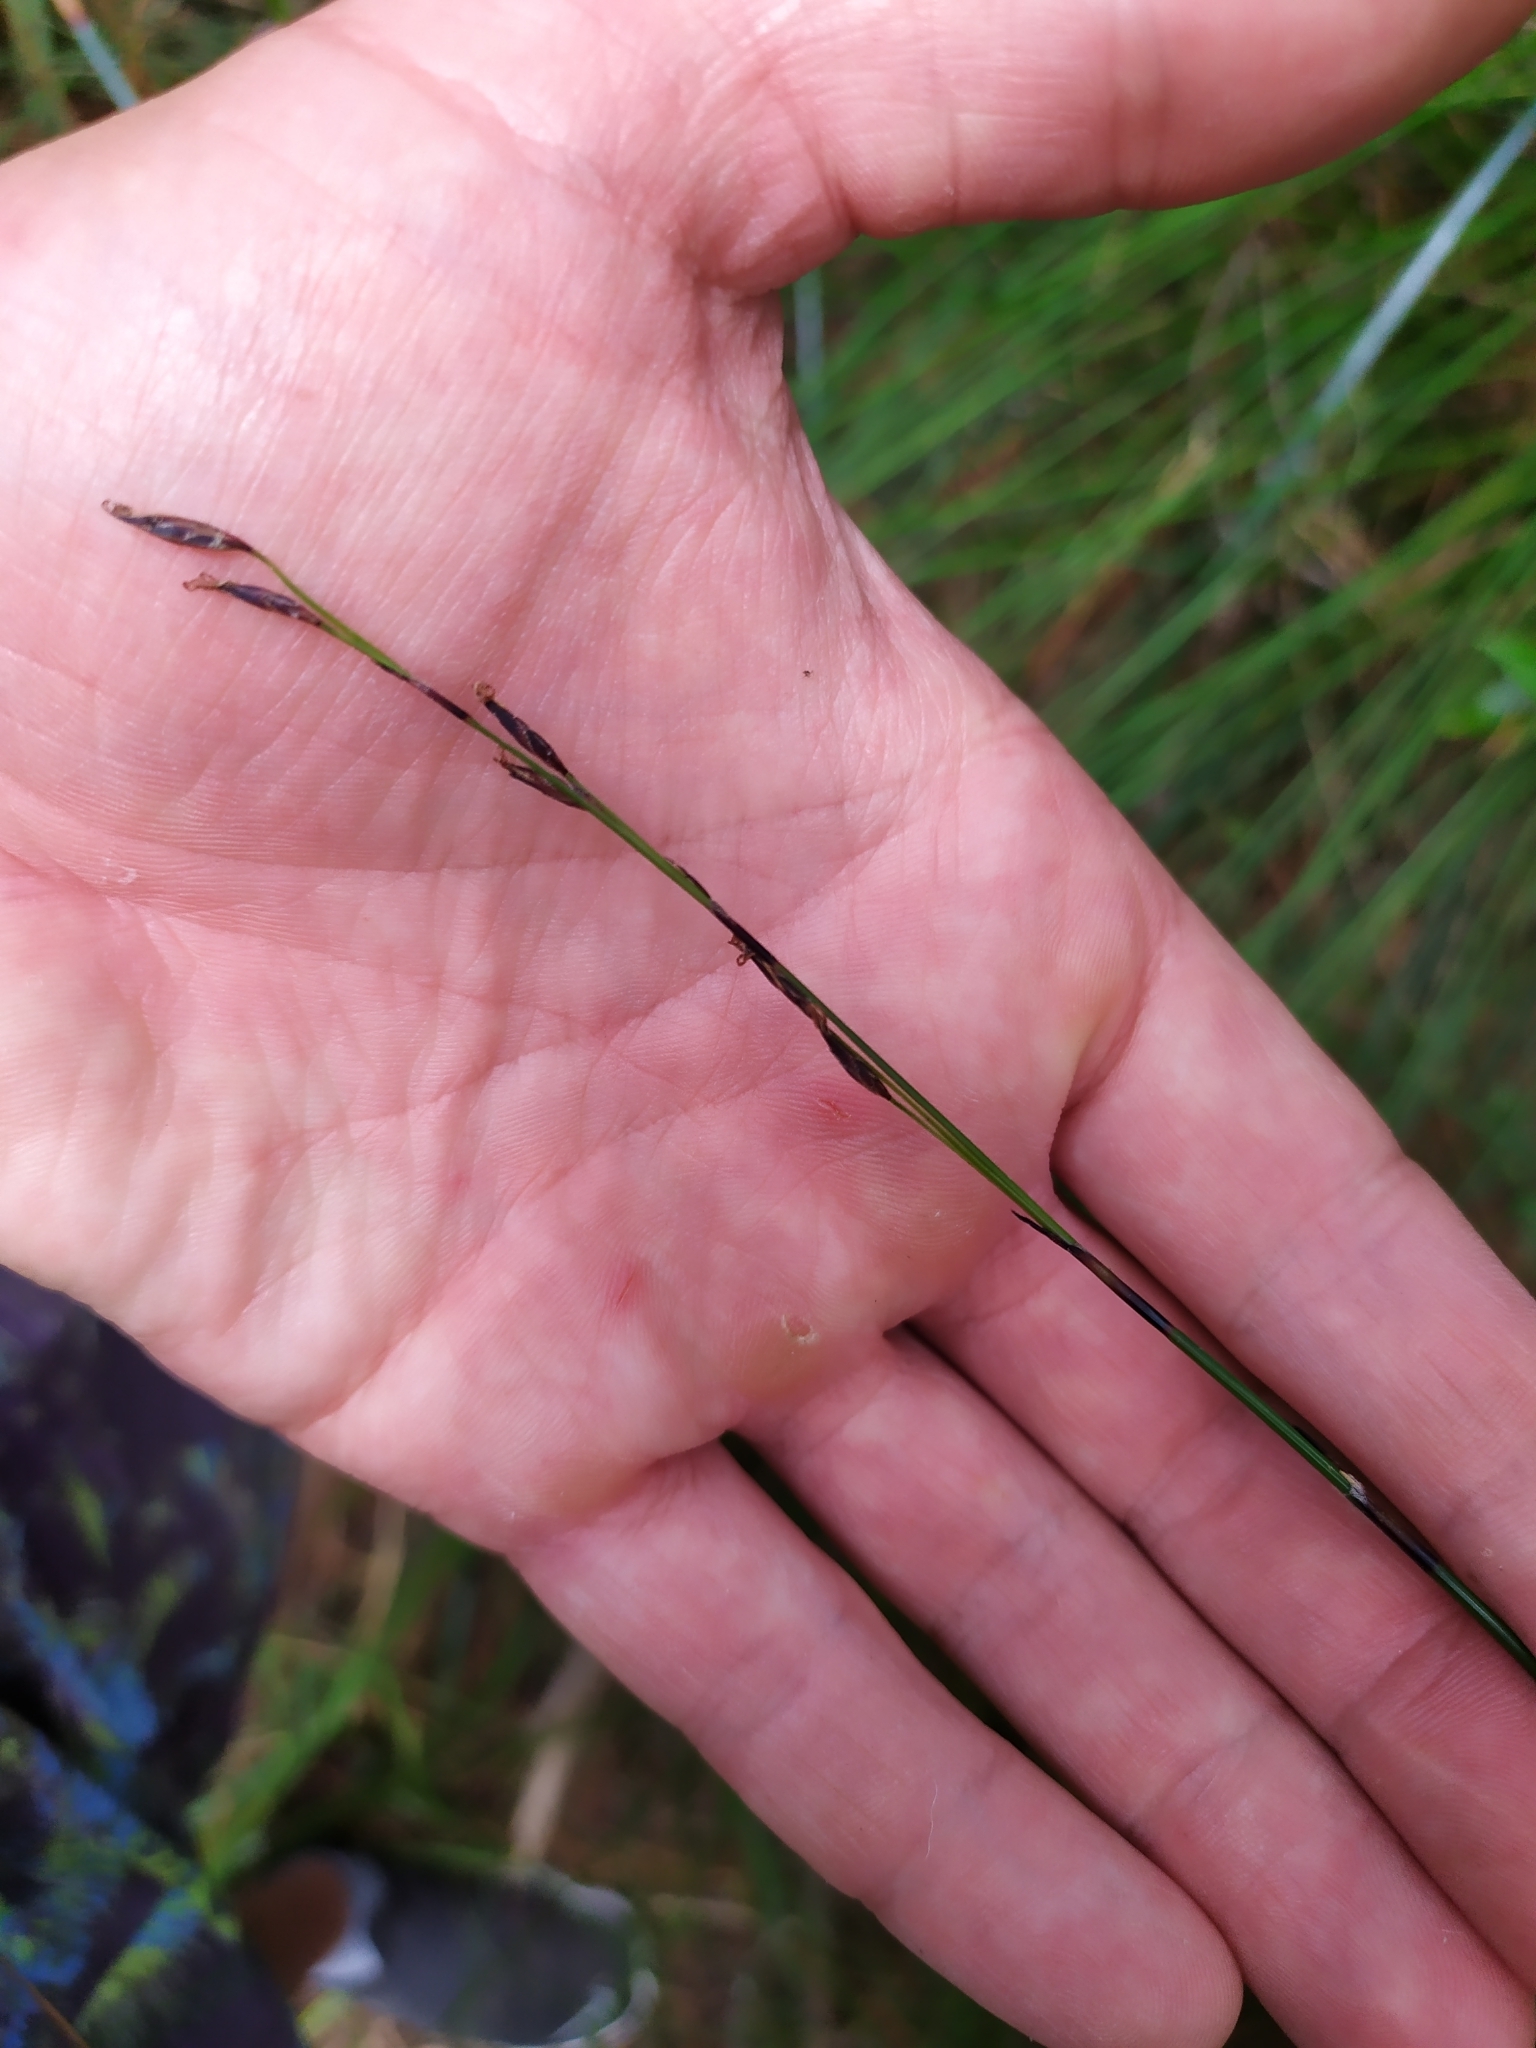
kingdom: Plantae
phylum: Tracheophyta
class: Liliopsida
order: Poales
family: Cyperaceae
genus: Schoenus
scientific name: Schoenus tendo
